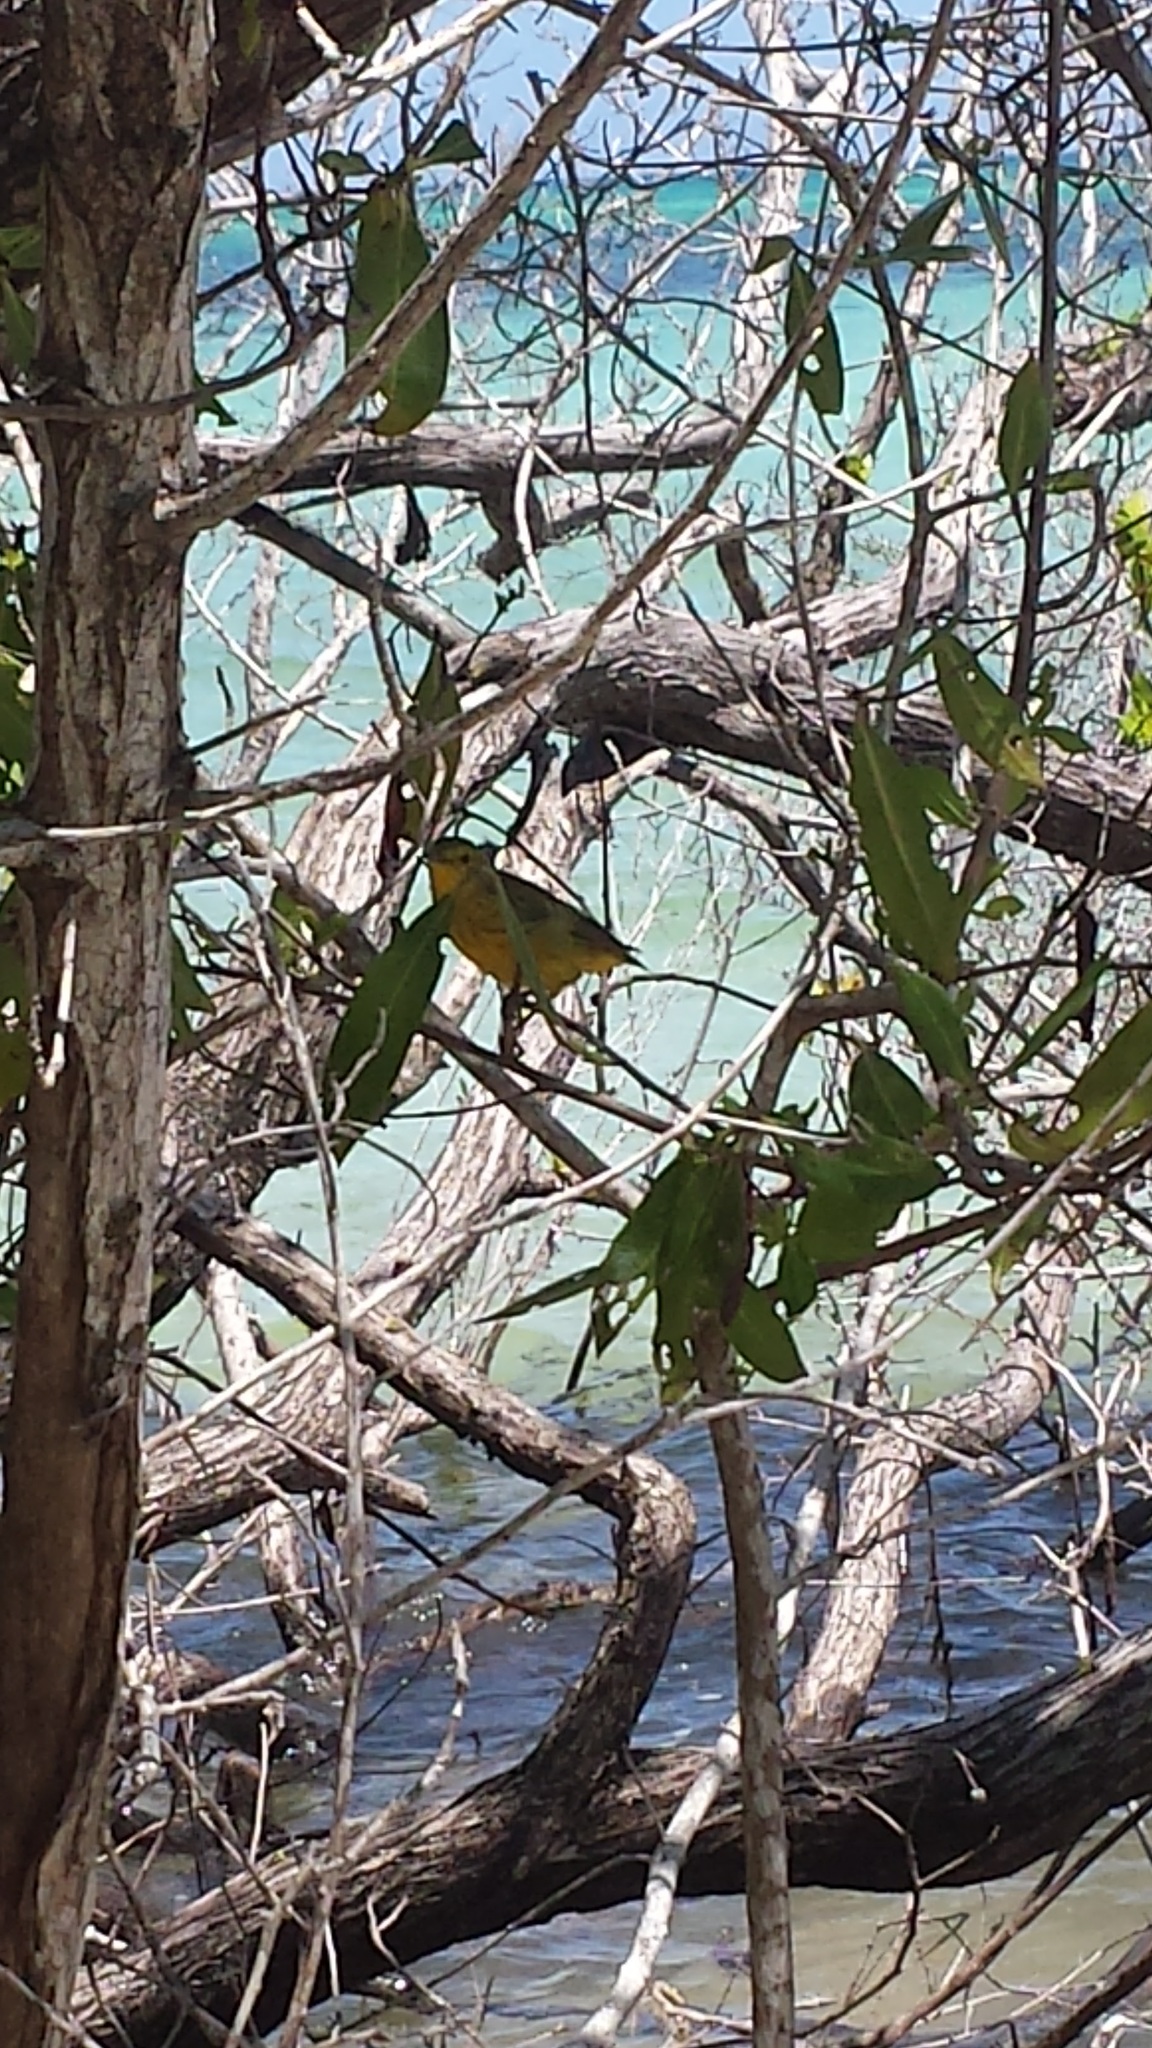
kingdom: Animalia
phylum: Chordata
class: Aves
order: Passeriformes
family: Parulidae
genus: Setophaga
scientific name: Setophaga petechia
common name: Yellow warbler
